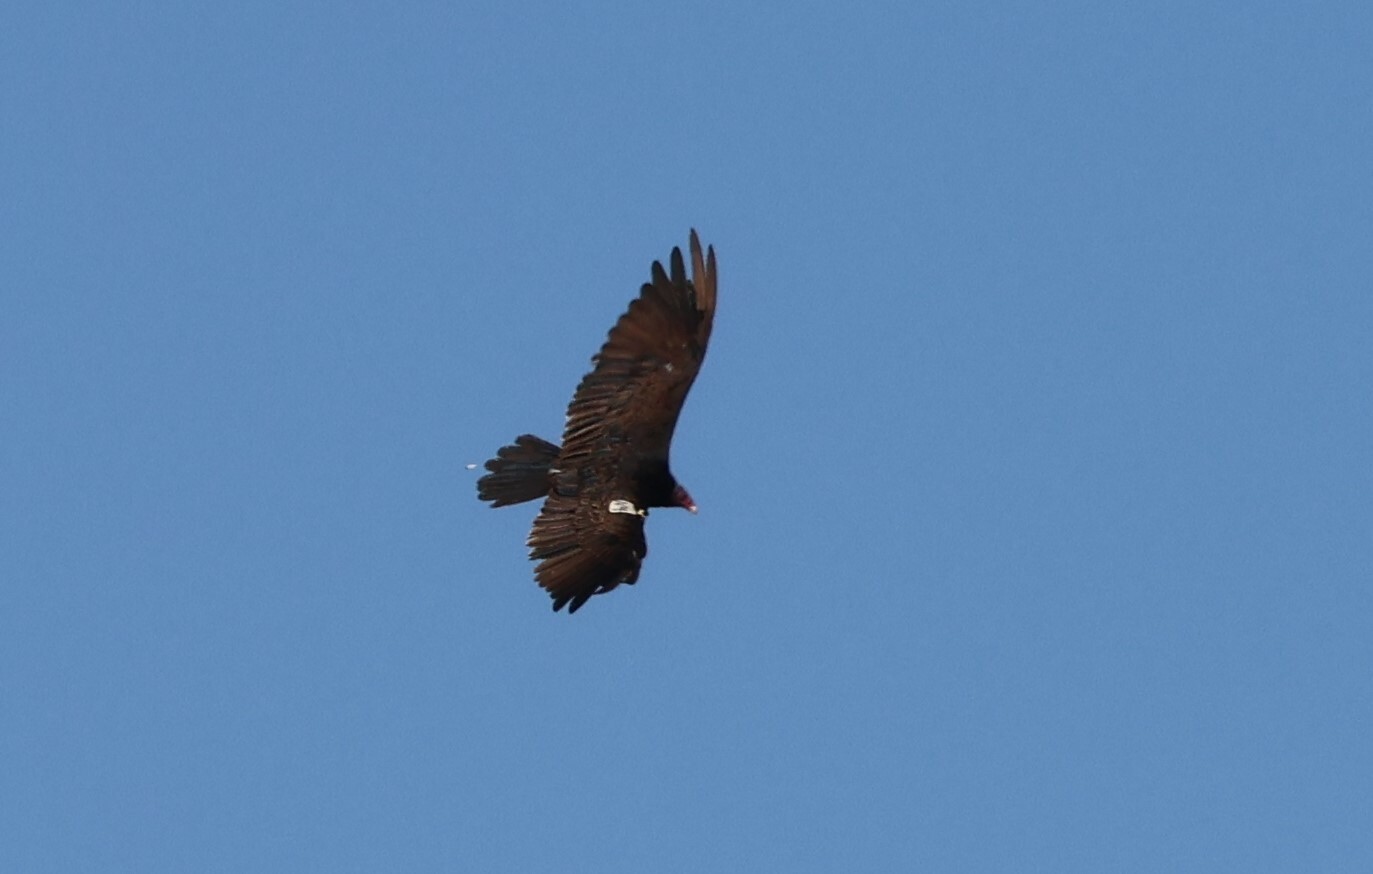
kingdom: Animalia
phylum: Chordata
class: Aves
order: Accipitriformes
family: Cathartidae
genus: Cathartes
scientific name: Cathartes aura
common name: Turkey vulture
